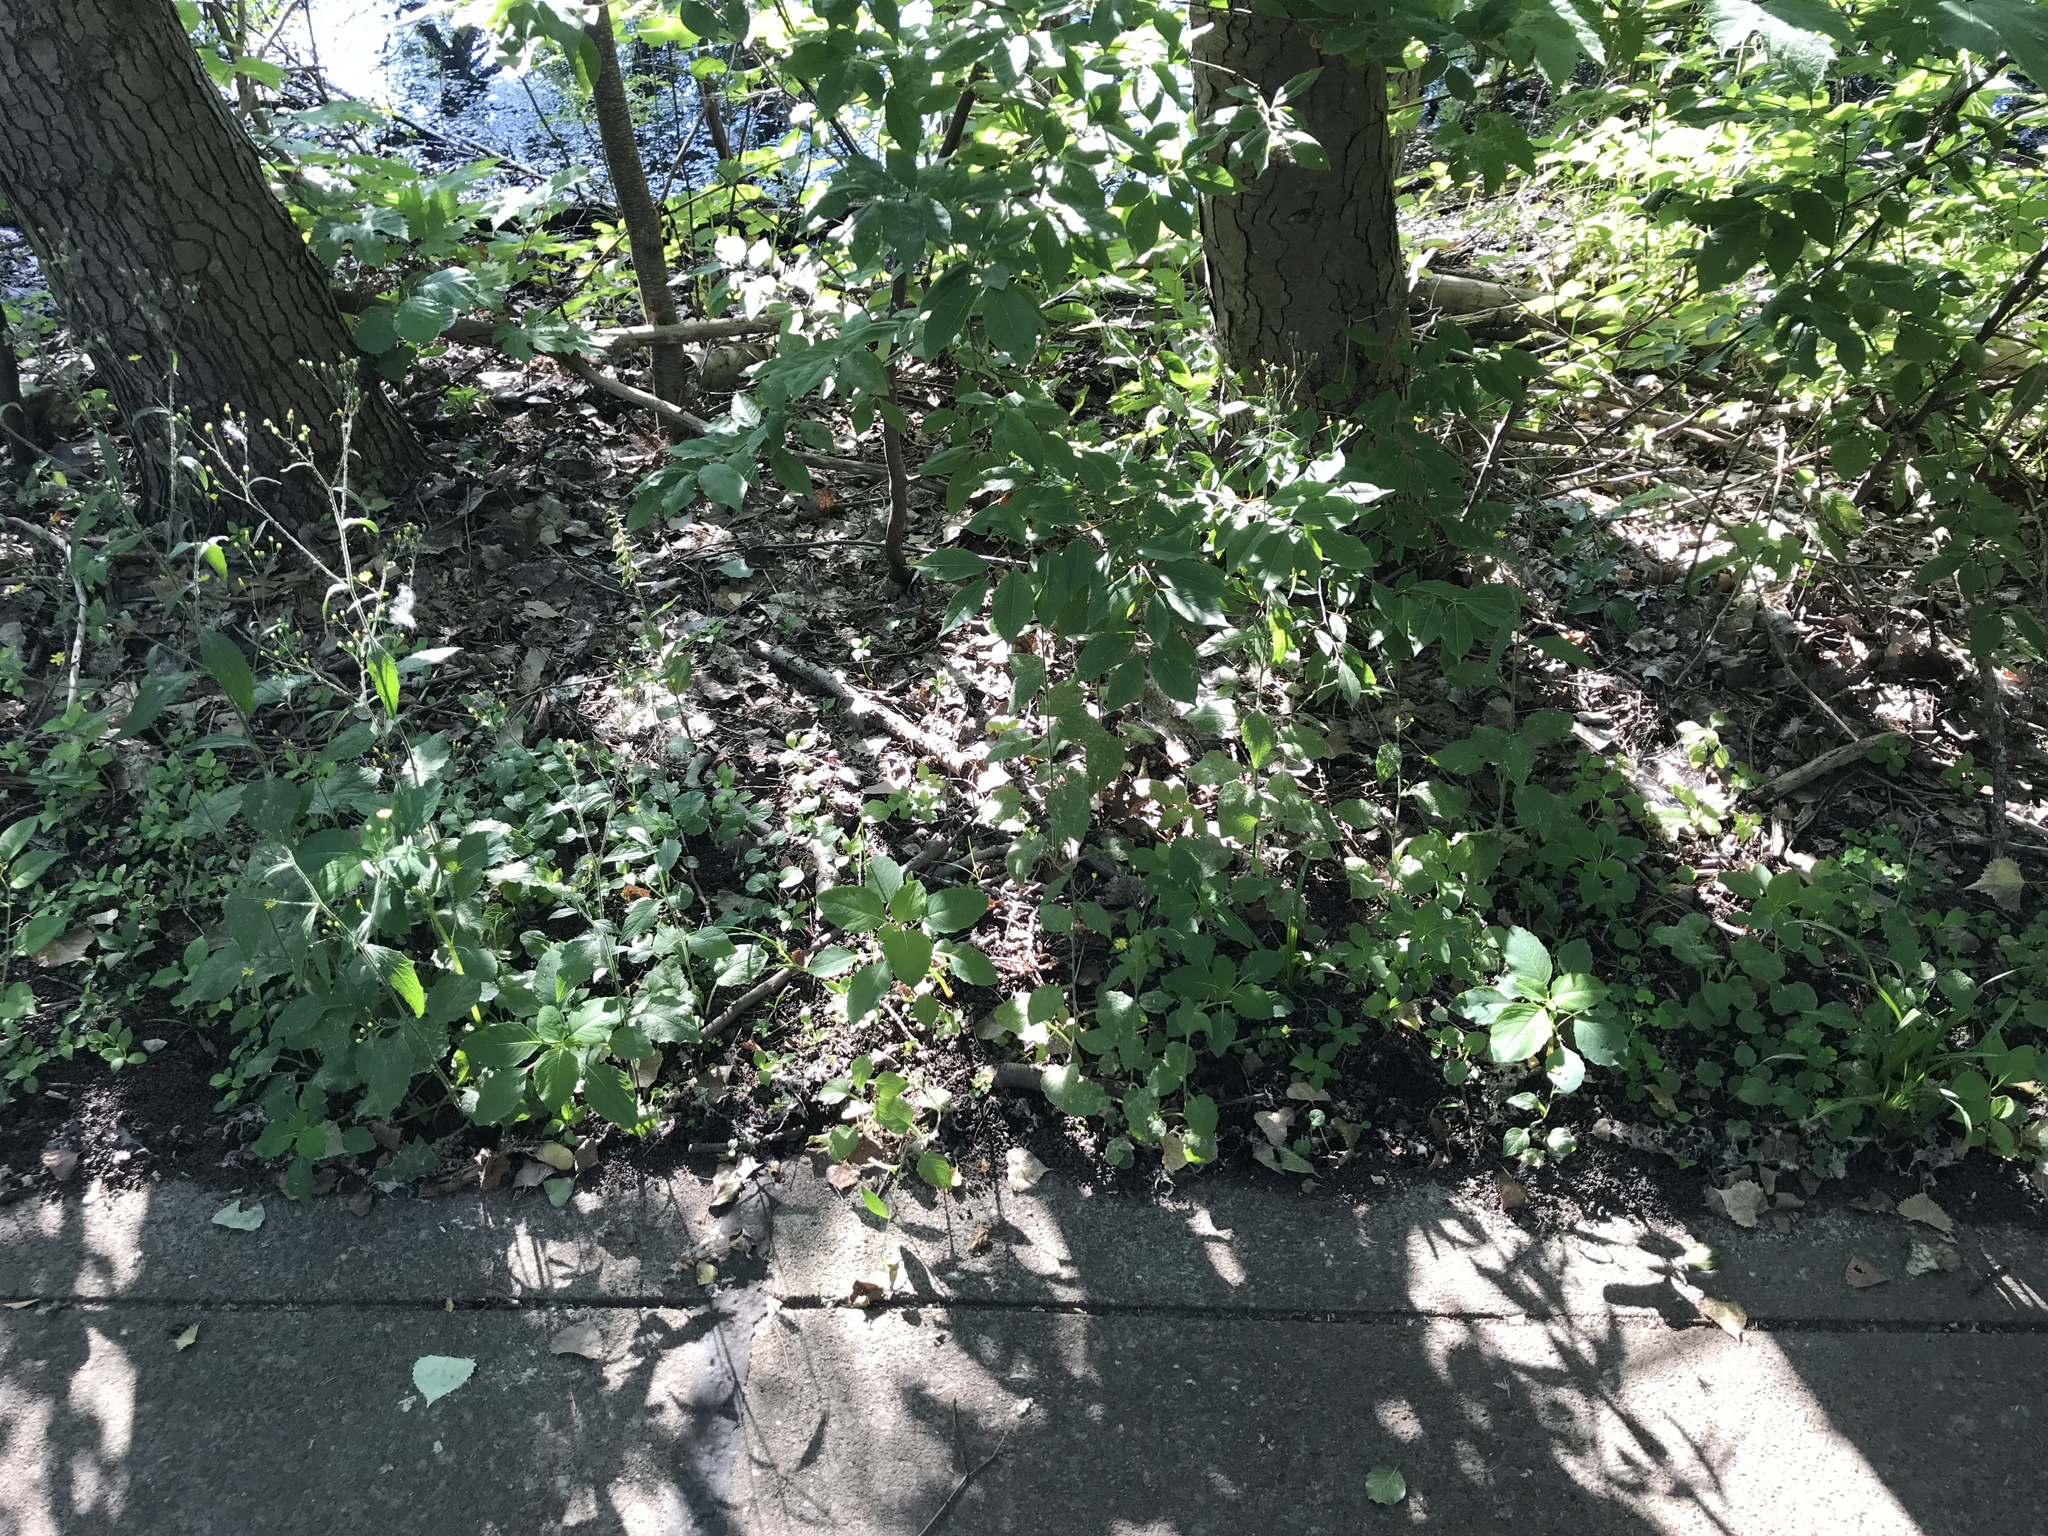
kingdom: Plantae
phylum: Tracheophyta
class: Magnoliopsida
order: Asterales
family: Asteraceae
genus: Lapsana
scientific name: Lapsana communis
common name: Nipplewort
